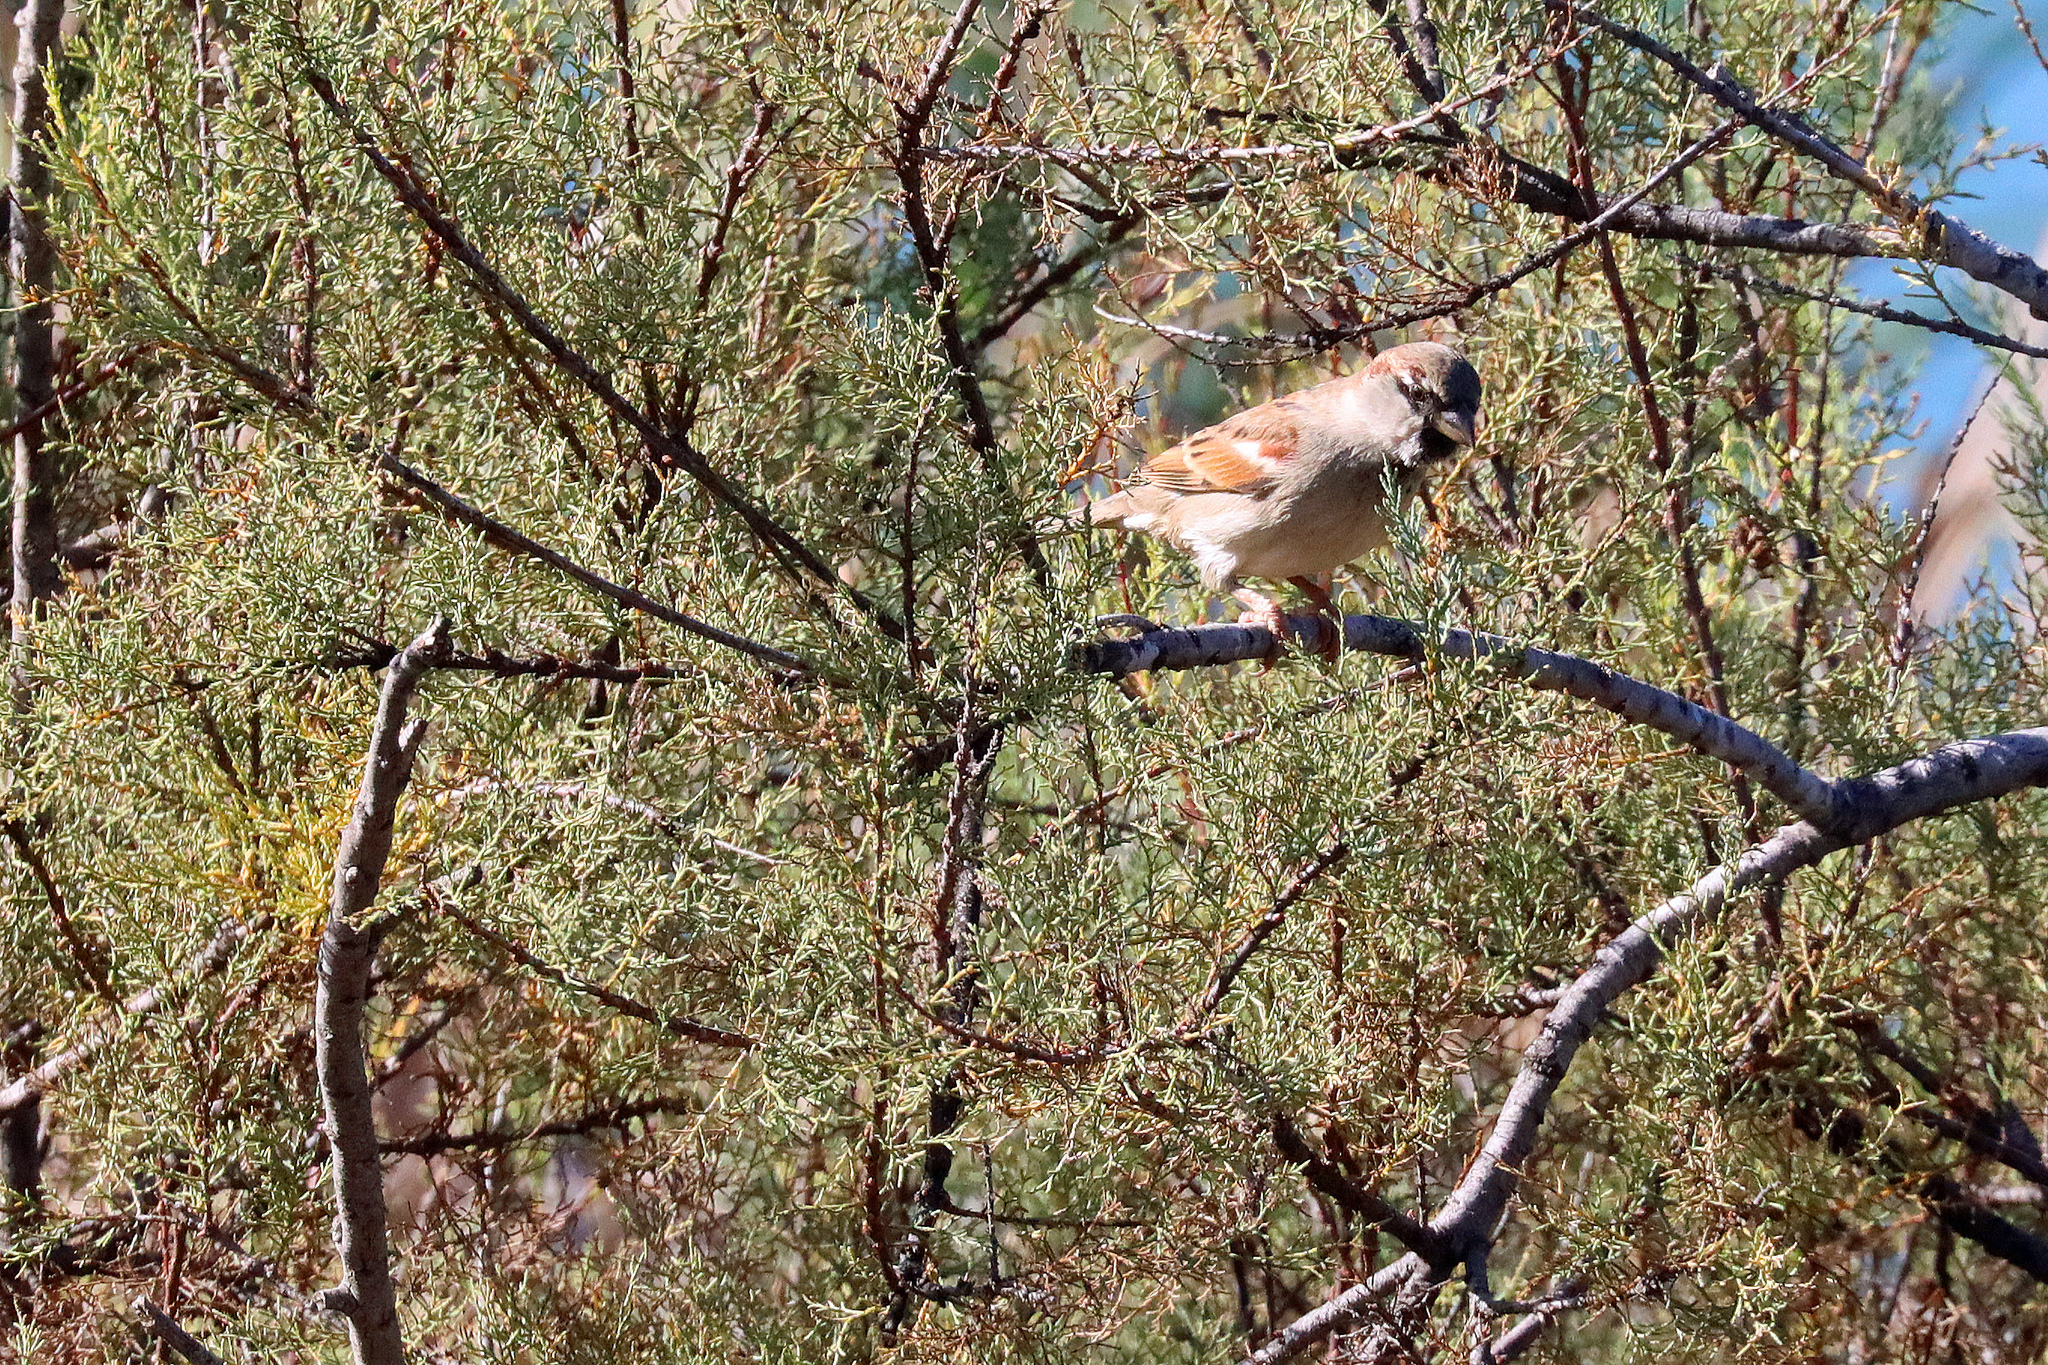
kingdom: Animalia
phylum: Chordata
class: Aves
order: Passeriformes
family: Passeridae
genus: Passer
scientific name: Passer domesticus
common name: House sparrow
